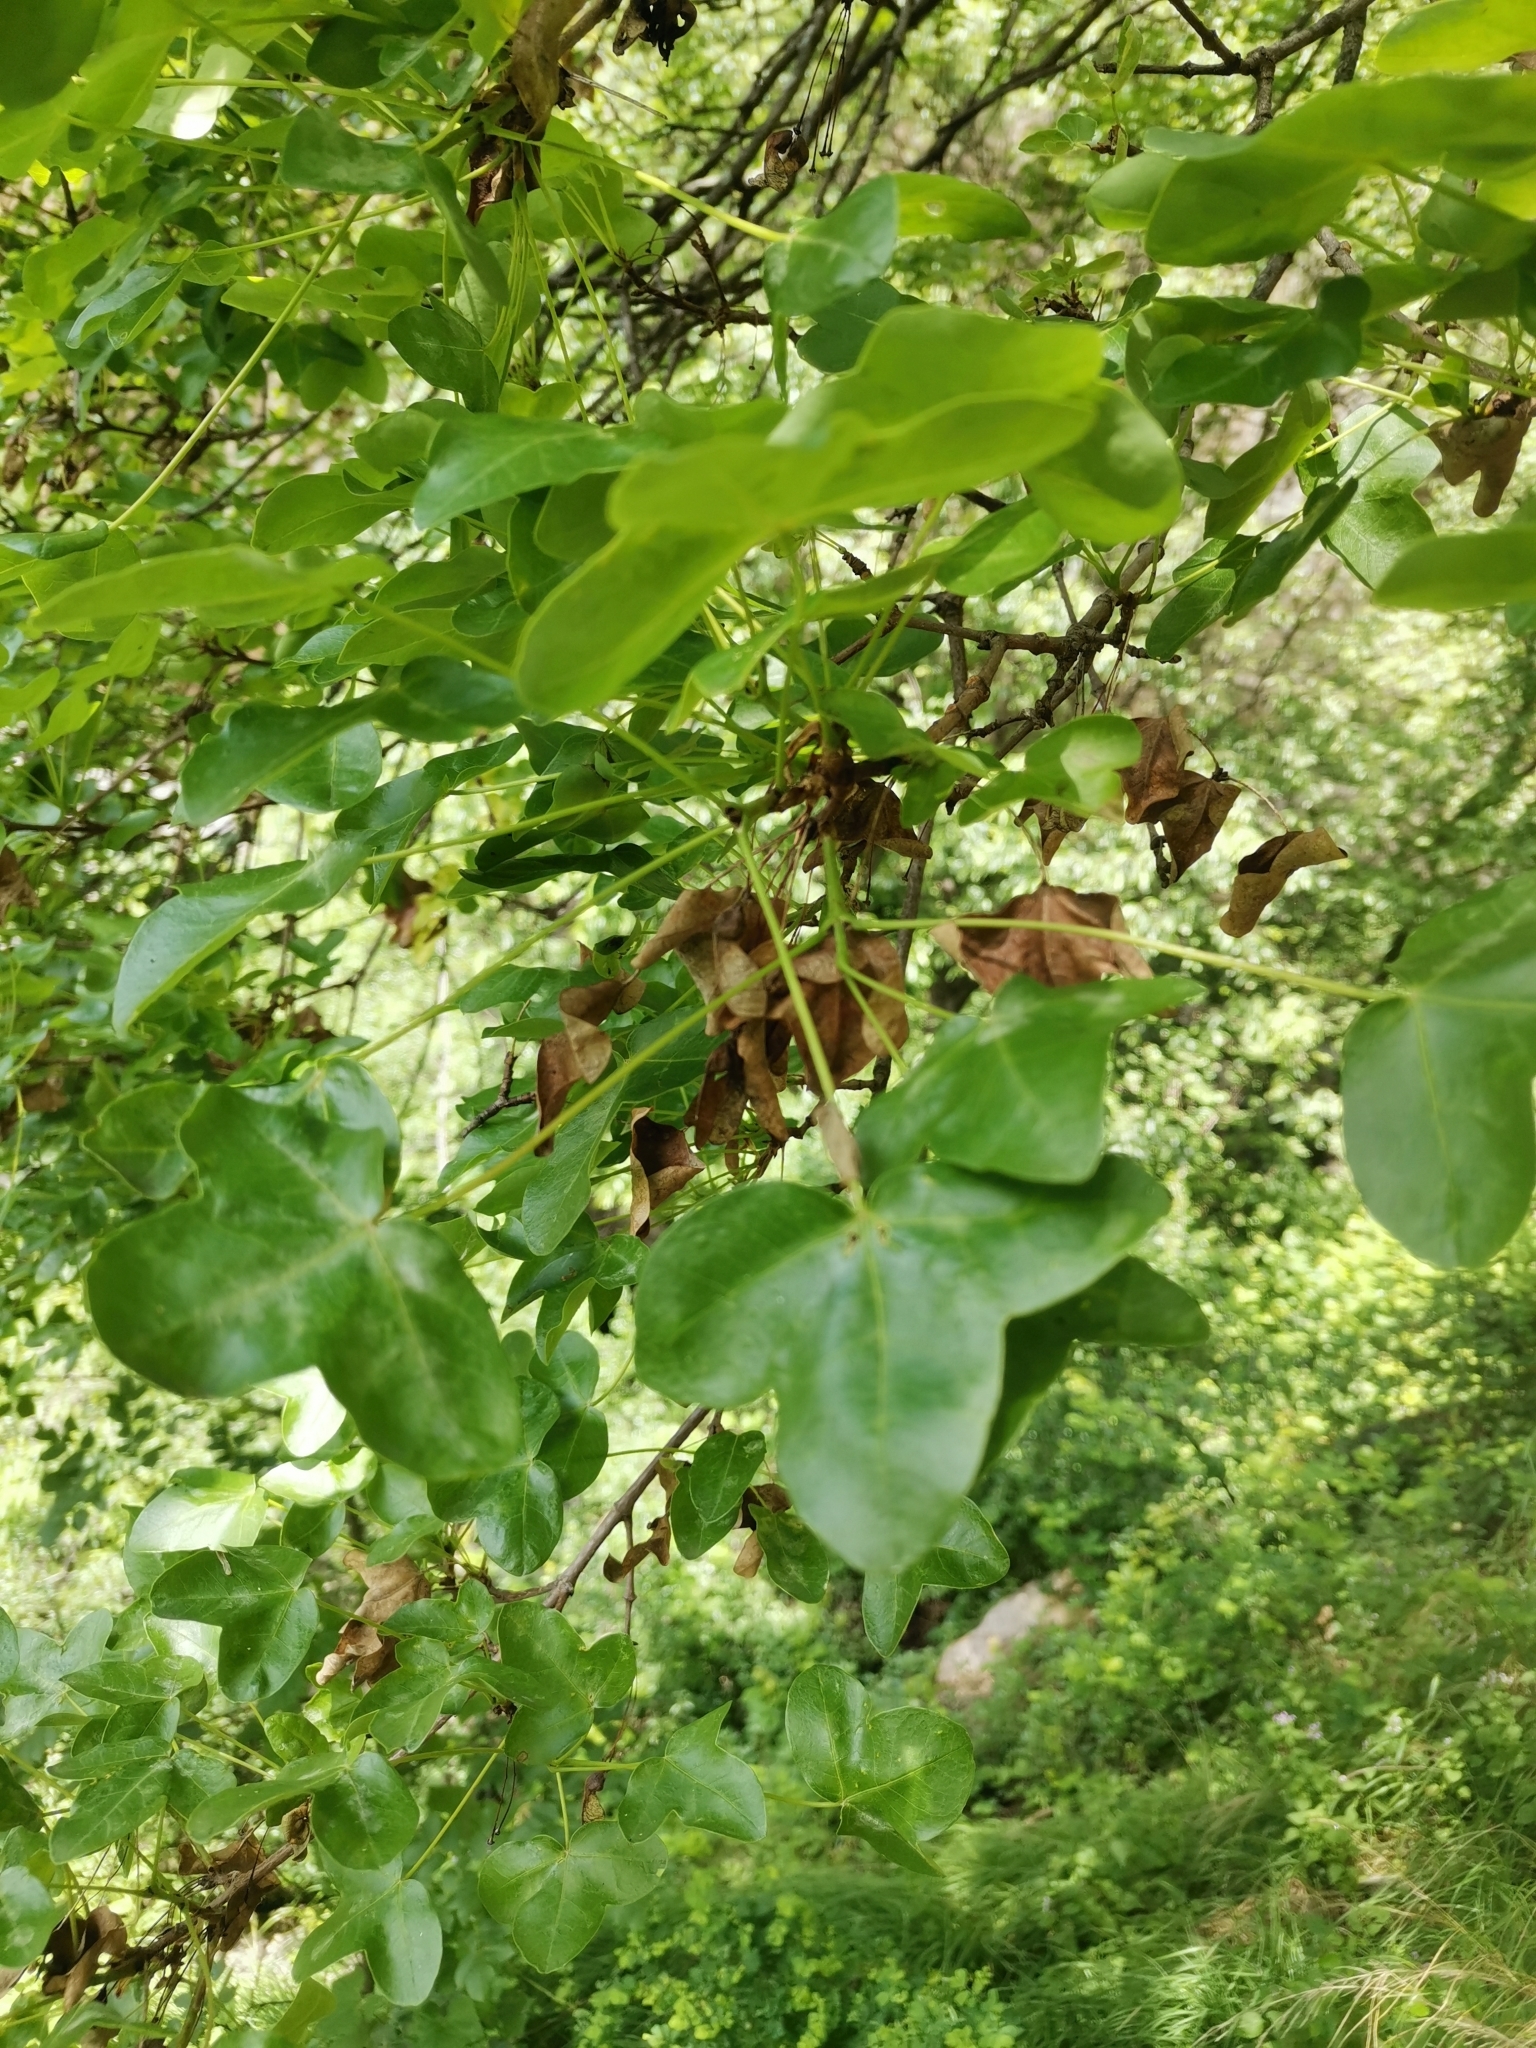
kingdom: Plantae
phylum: Tracheophyta
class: Magnoliopsida
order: Sapindales
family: Sapindaceae
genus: Acer
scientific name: Acer monspessulanum
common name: Montpellier maple
